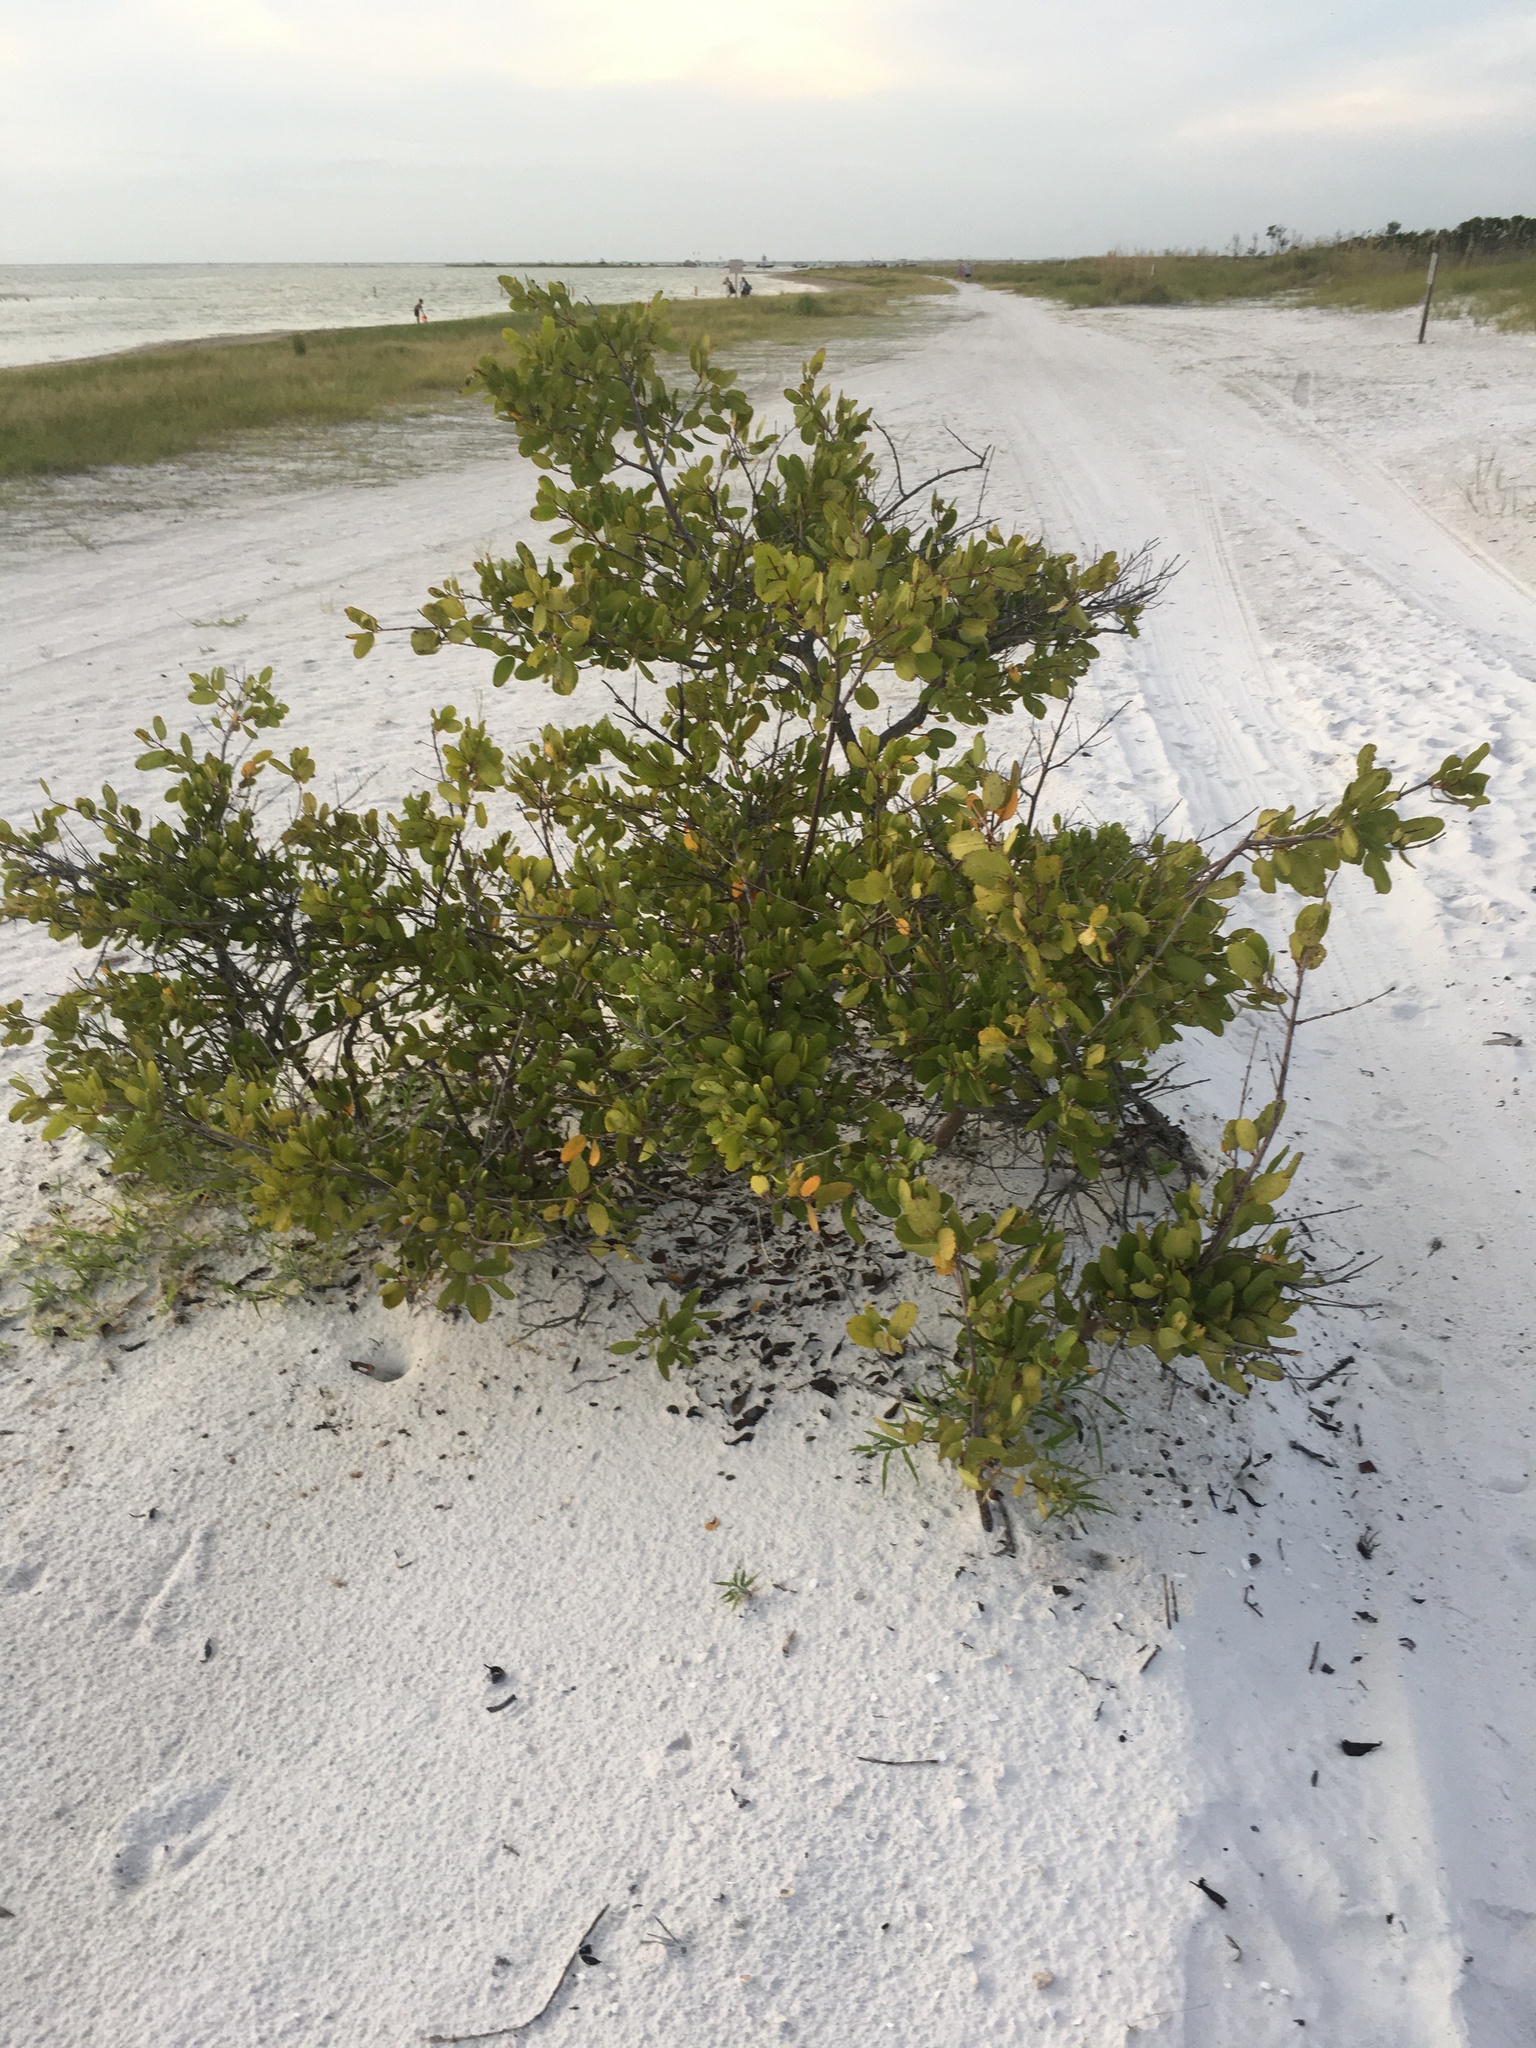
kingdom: Plantae
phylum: Tracheophyta
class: Magnoliopsida
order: Myrtales
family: Combretaceae
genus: Laguncularia
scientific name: Laguncularia racemosa
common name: White mangrove
